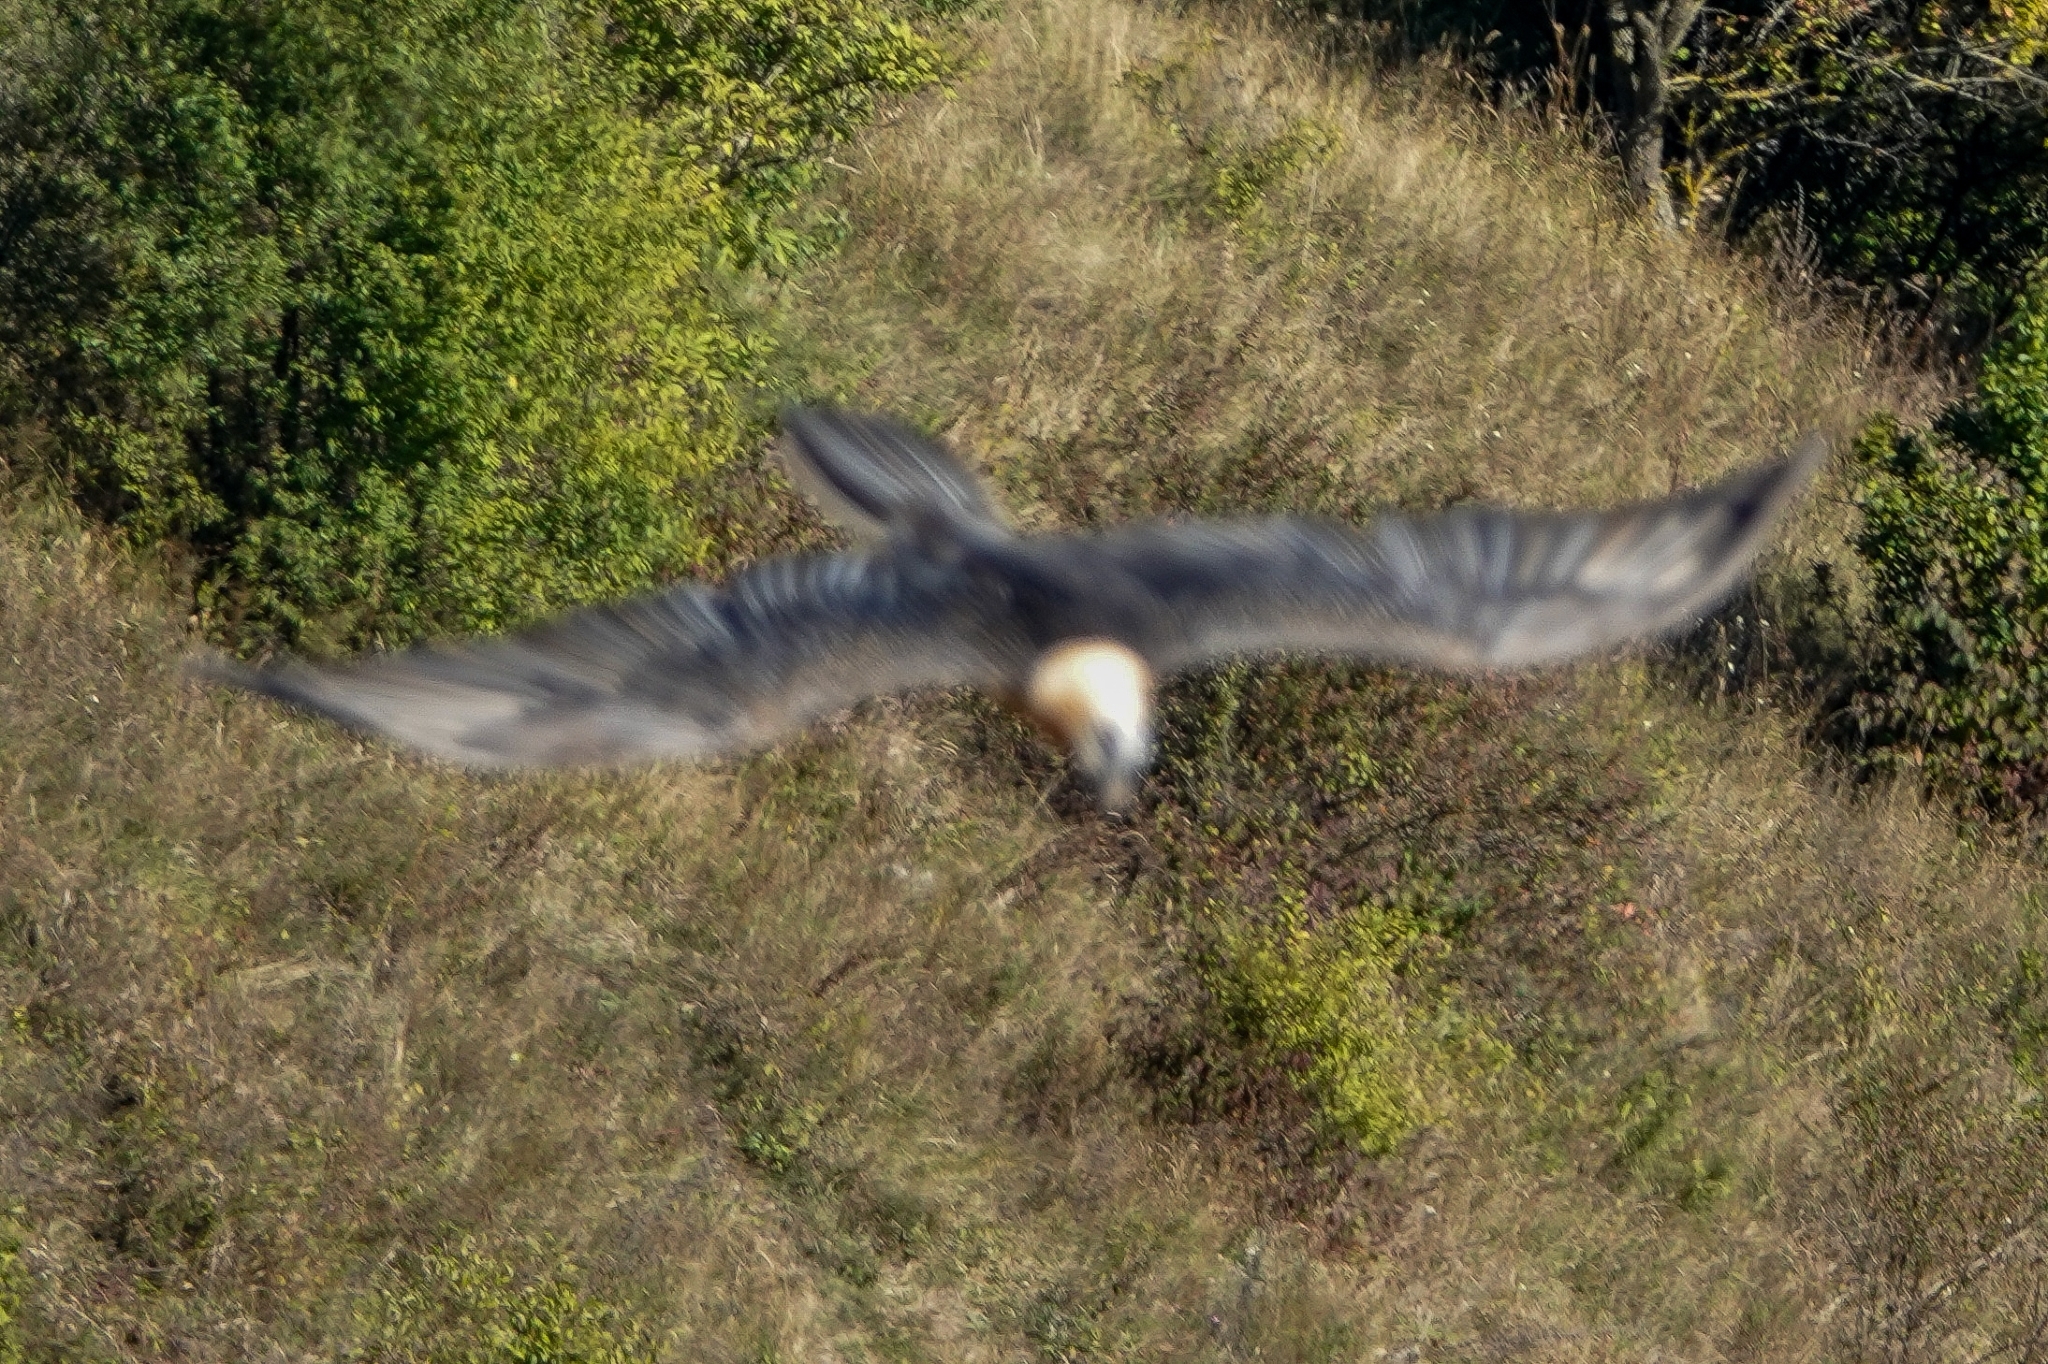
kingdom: Animalia
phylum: Chordata
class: Aves
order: Accipitriformes
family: Accipitridae
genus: Gypaetus
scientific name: Gypaetus barbatus
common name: Bearded vulture
